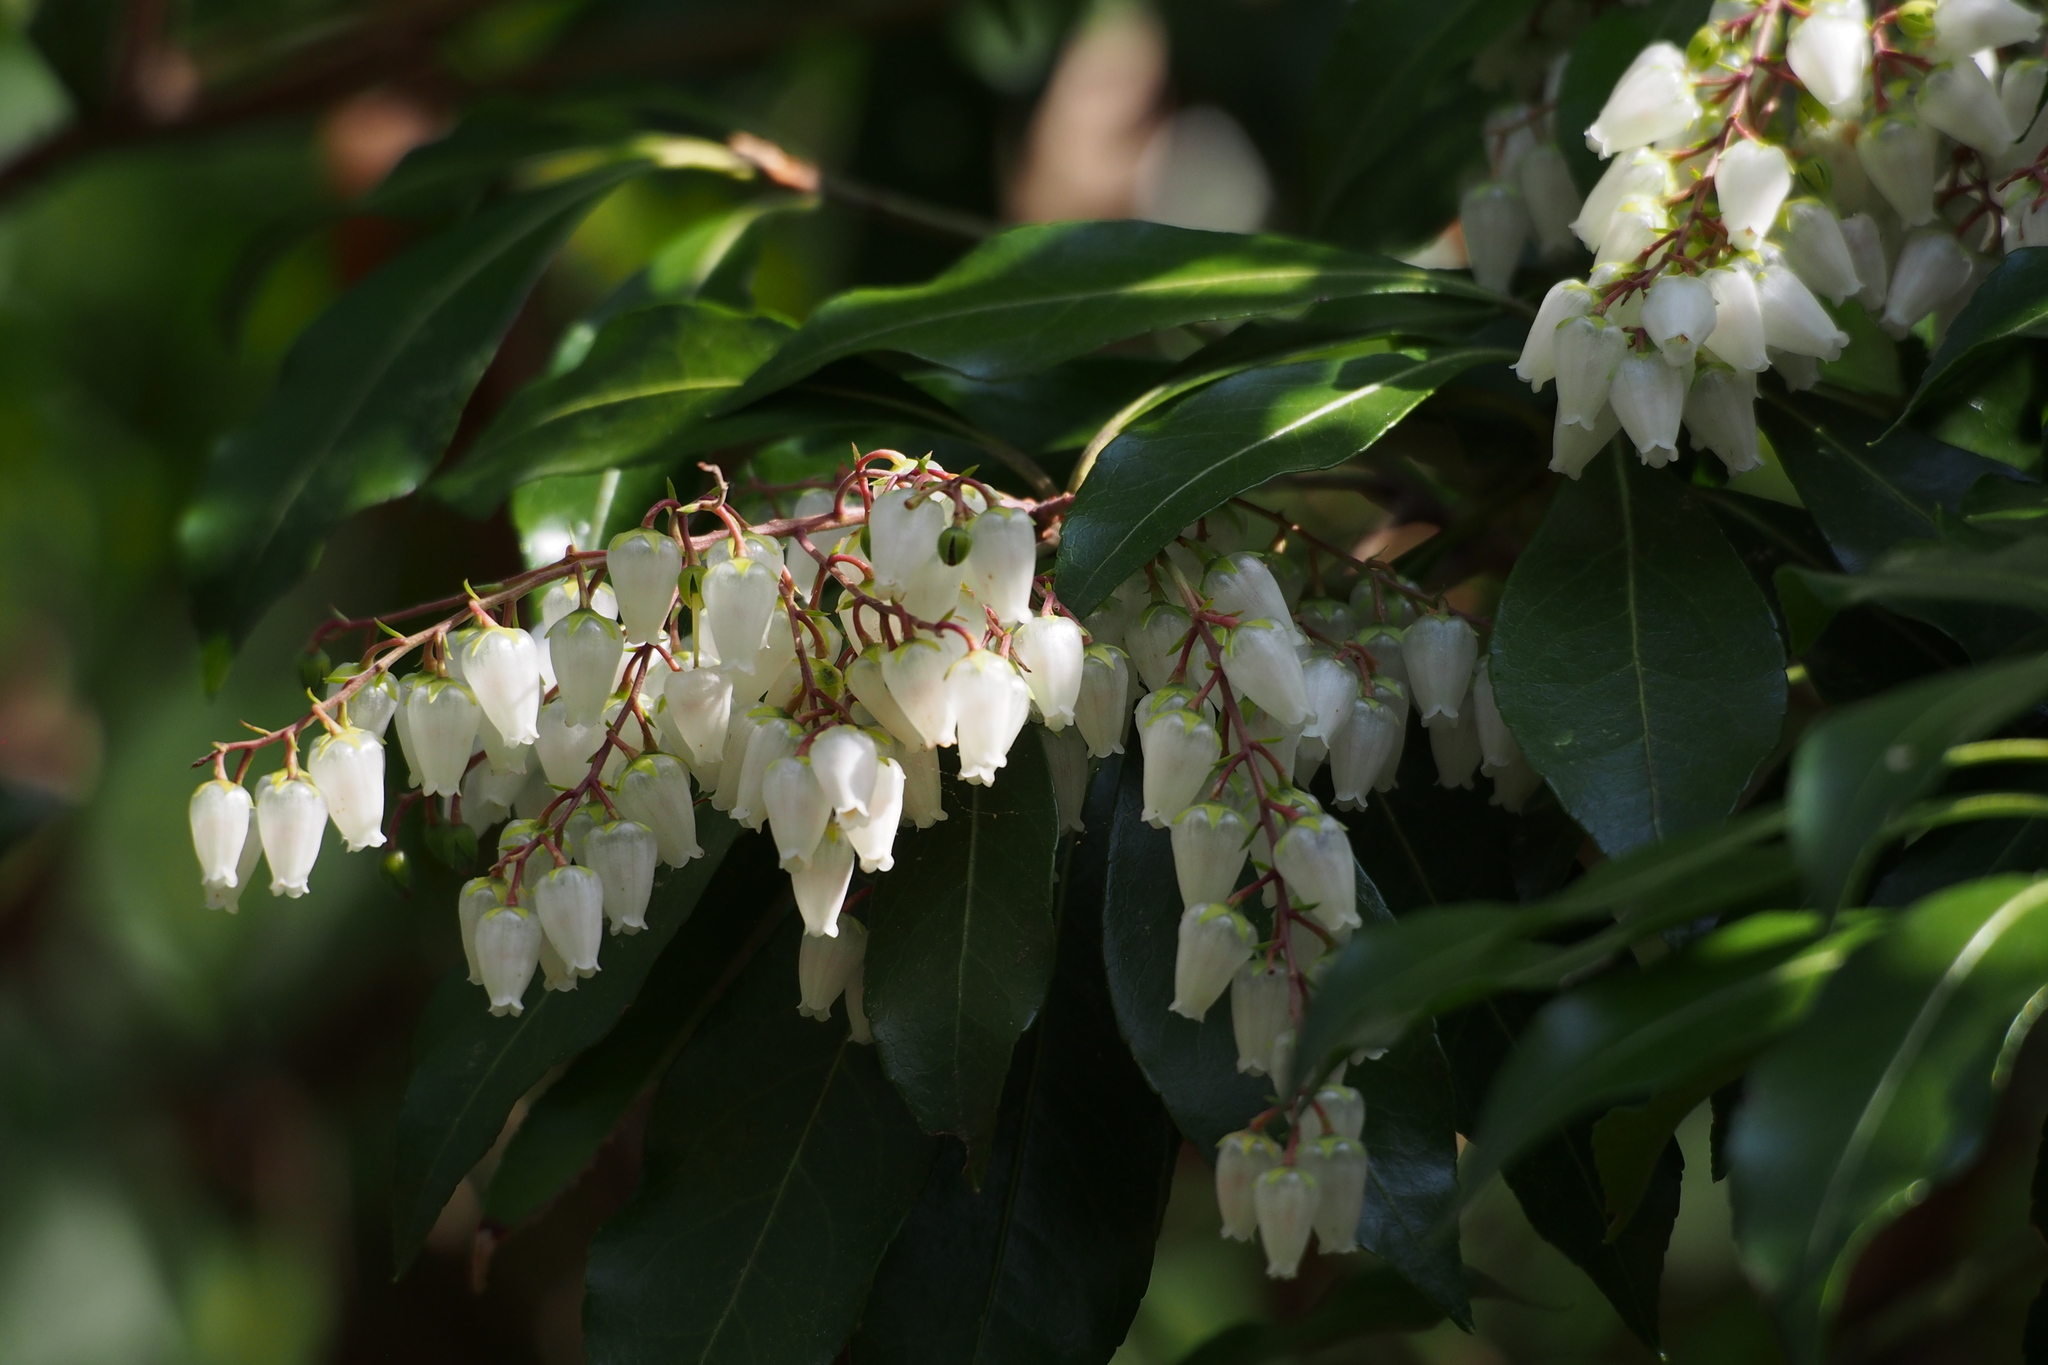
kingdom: Plantae
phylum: Tracheophyta
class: Magnoliopsida
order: Ericales
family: Ericaceae
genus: Pieris
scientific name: Pieris japonica
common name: Japanese pieris
